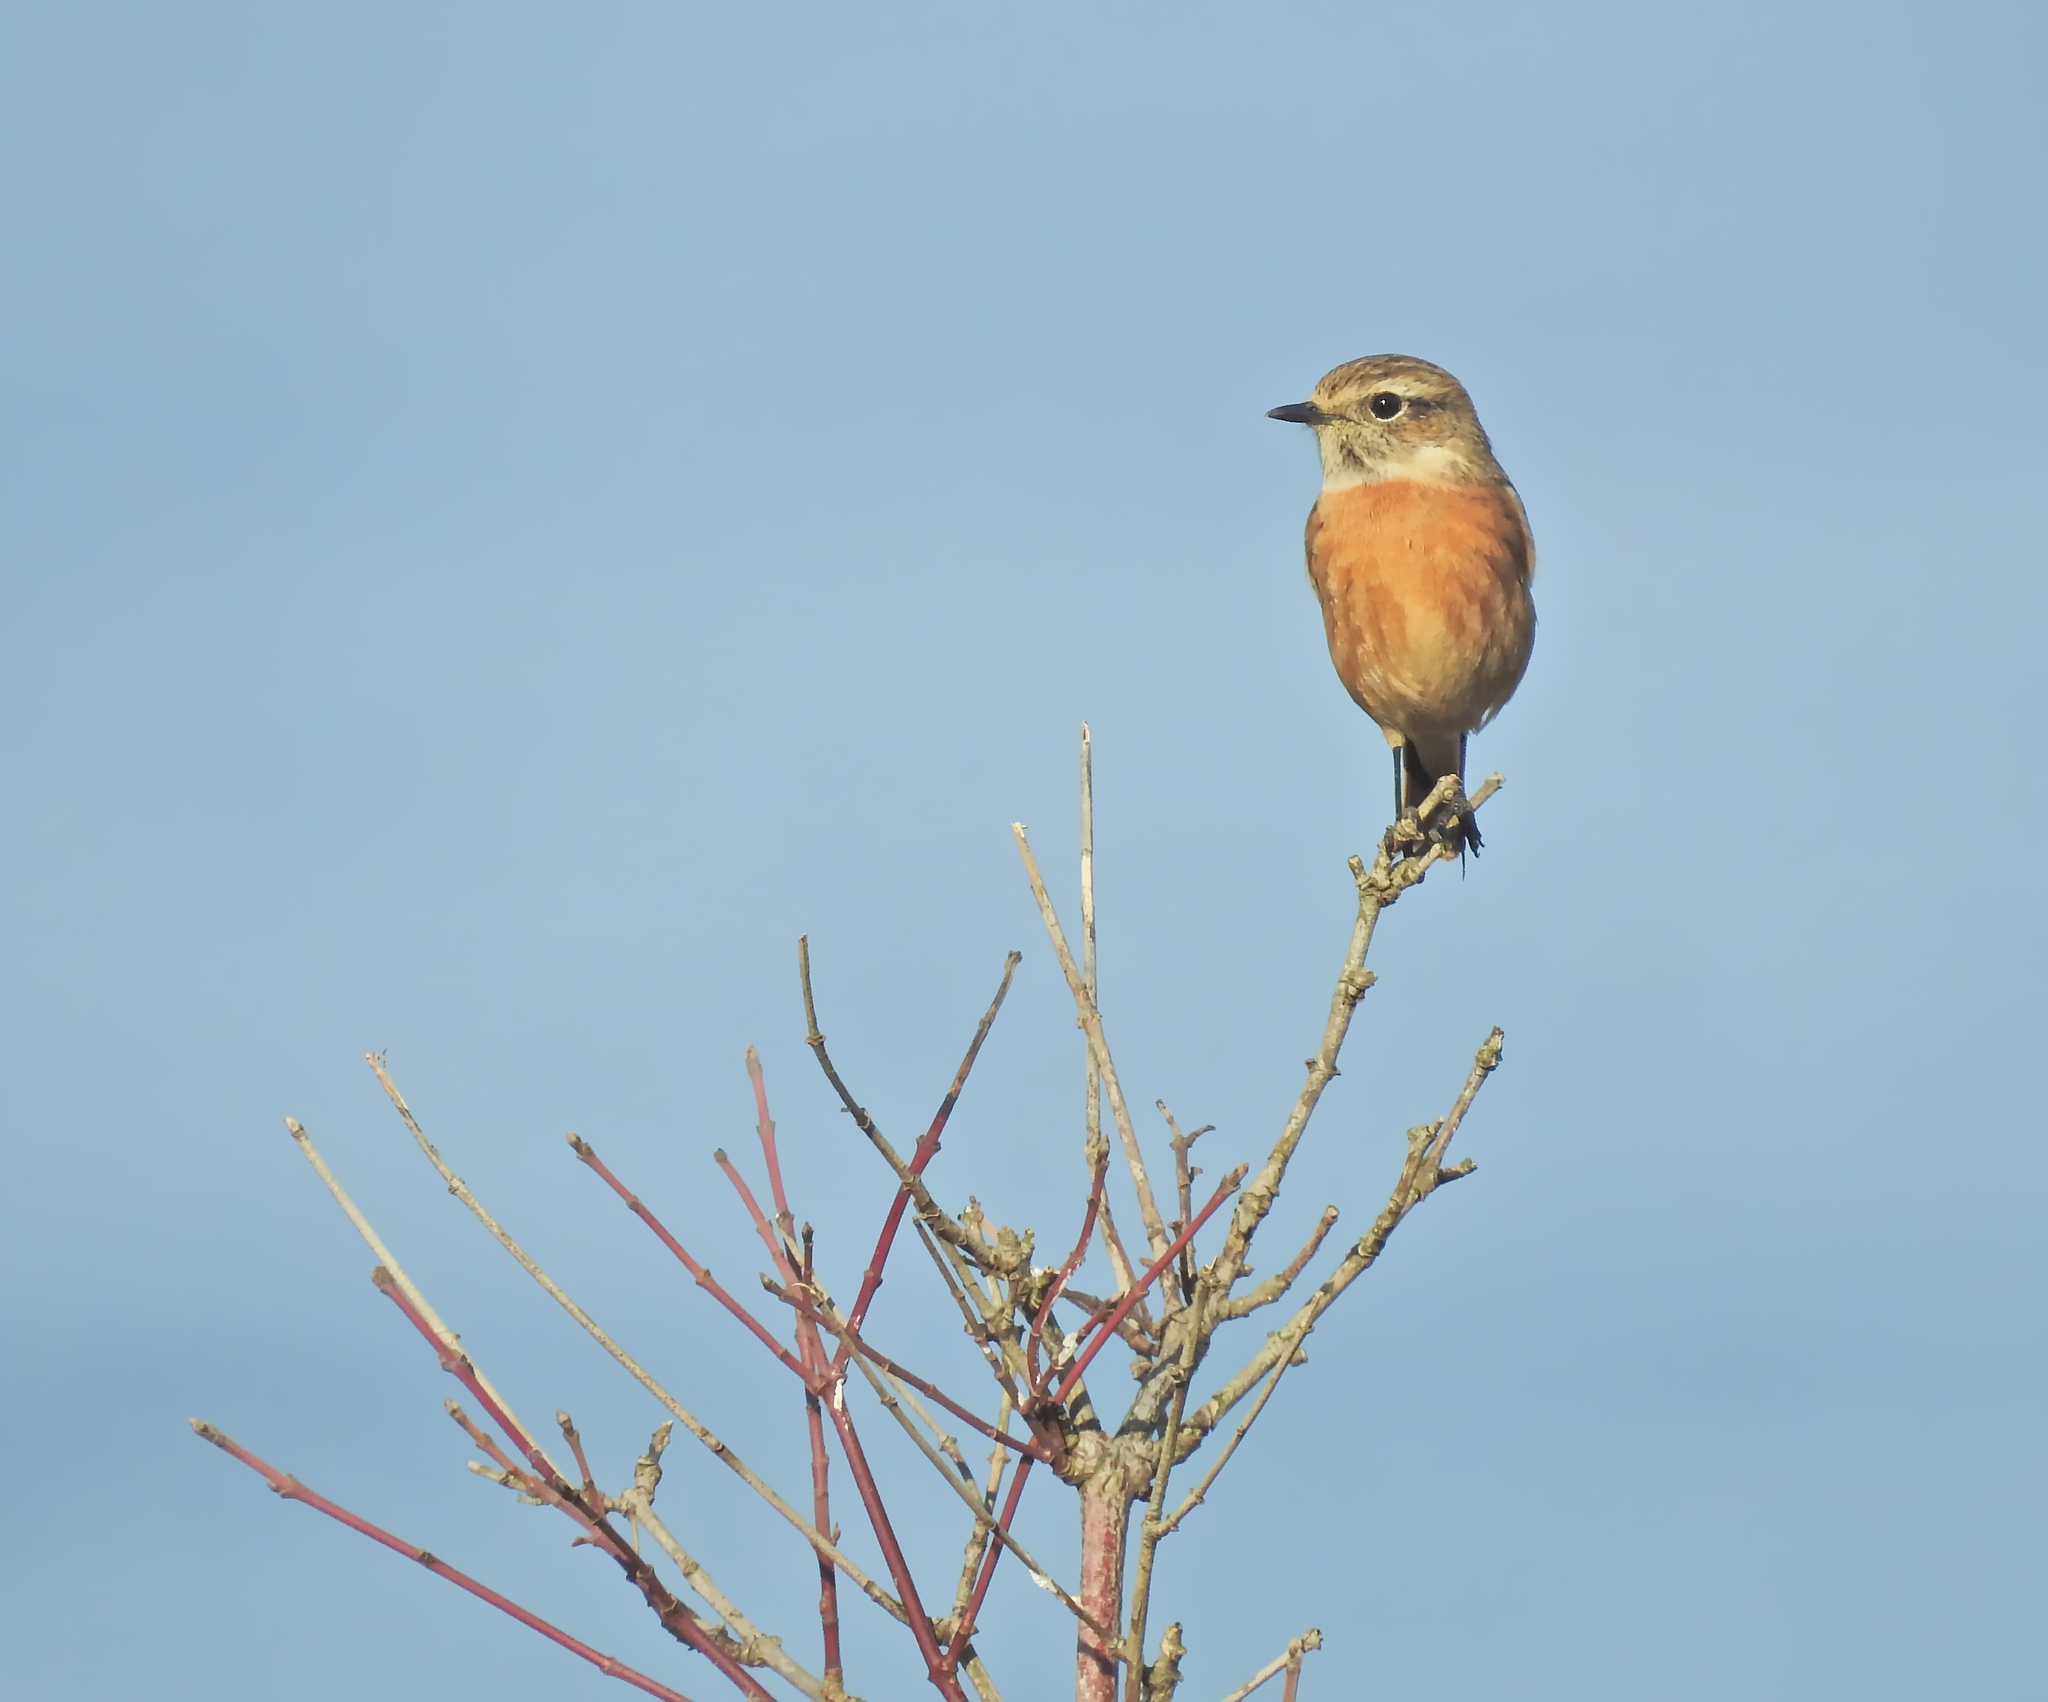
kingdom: Animalia
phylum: Chordata
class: Aves
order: Passeriformes
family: Muscicapidae
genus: Saxicola
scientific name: Saxicola rubicola
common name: European stonechat
